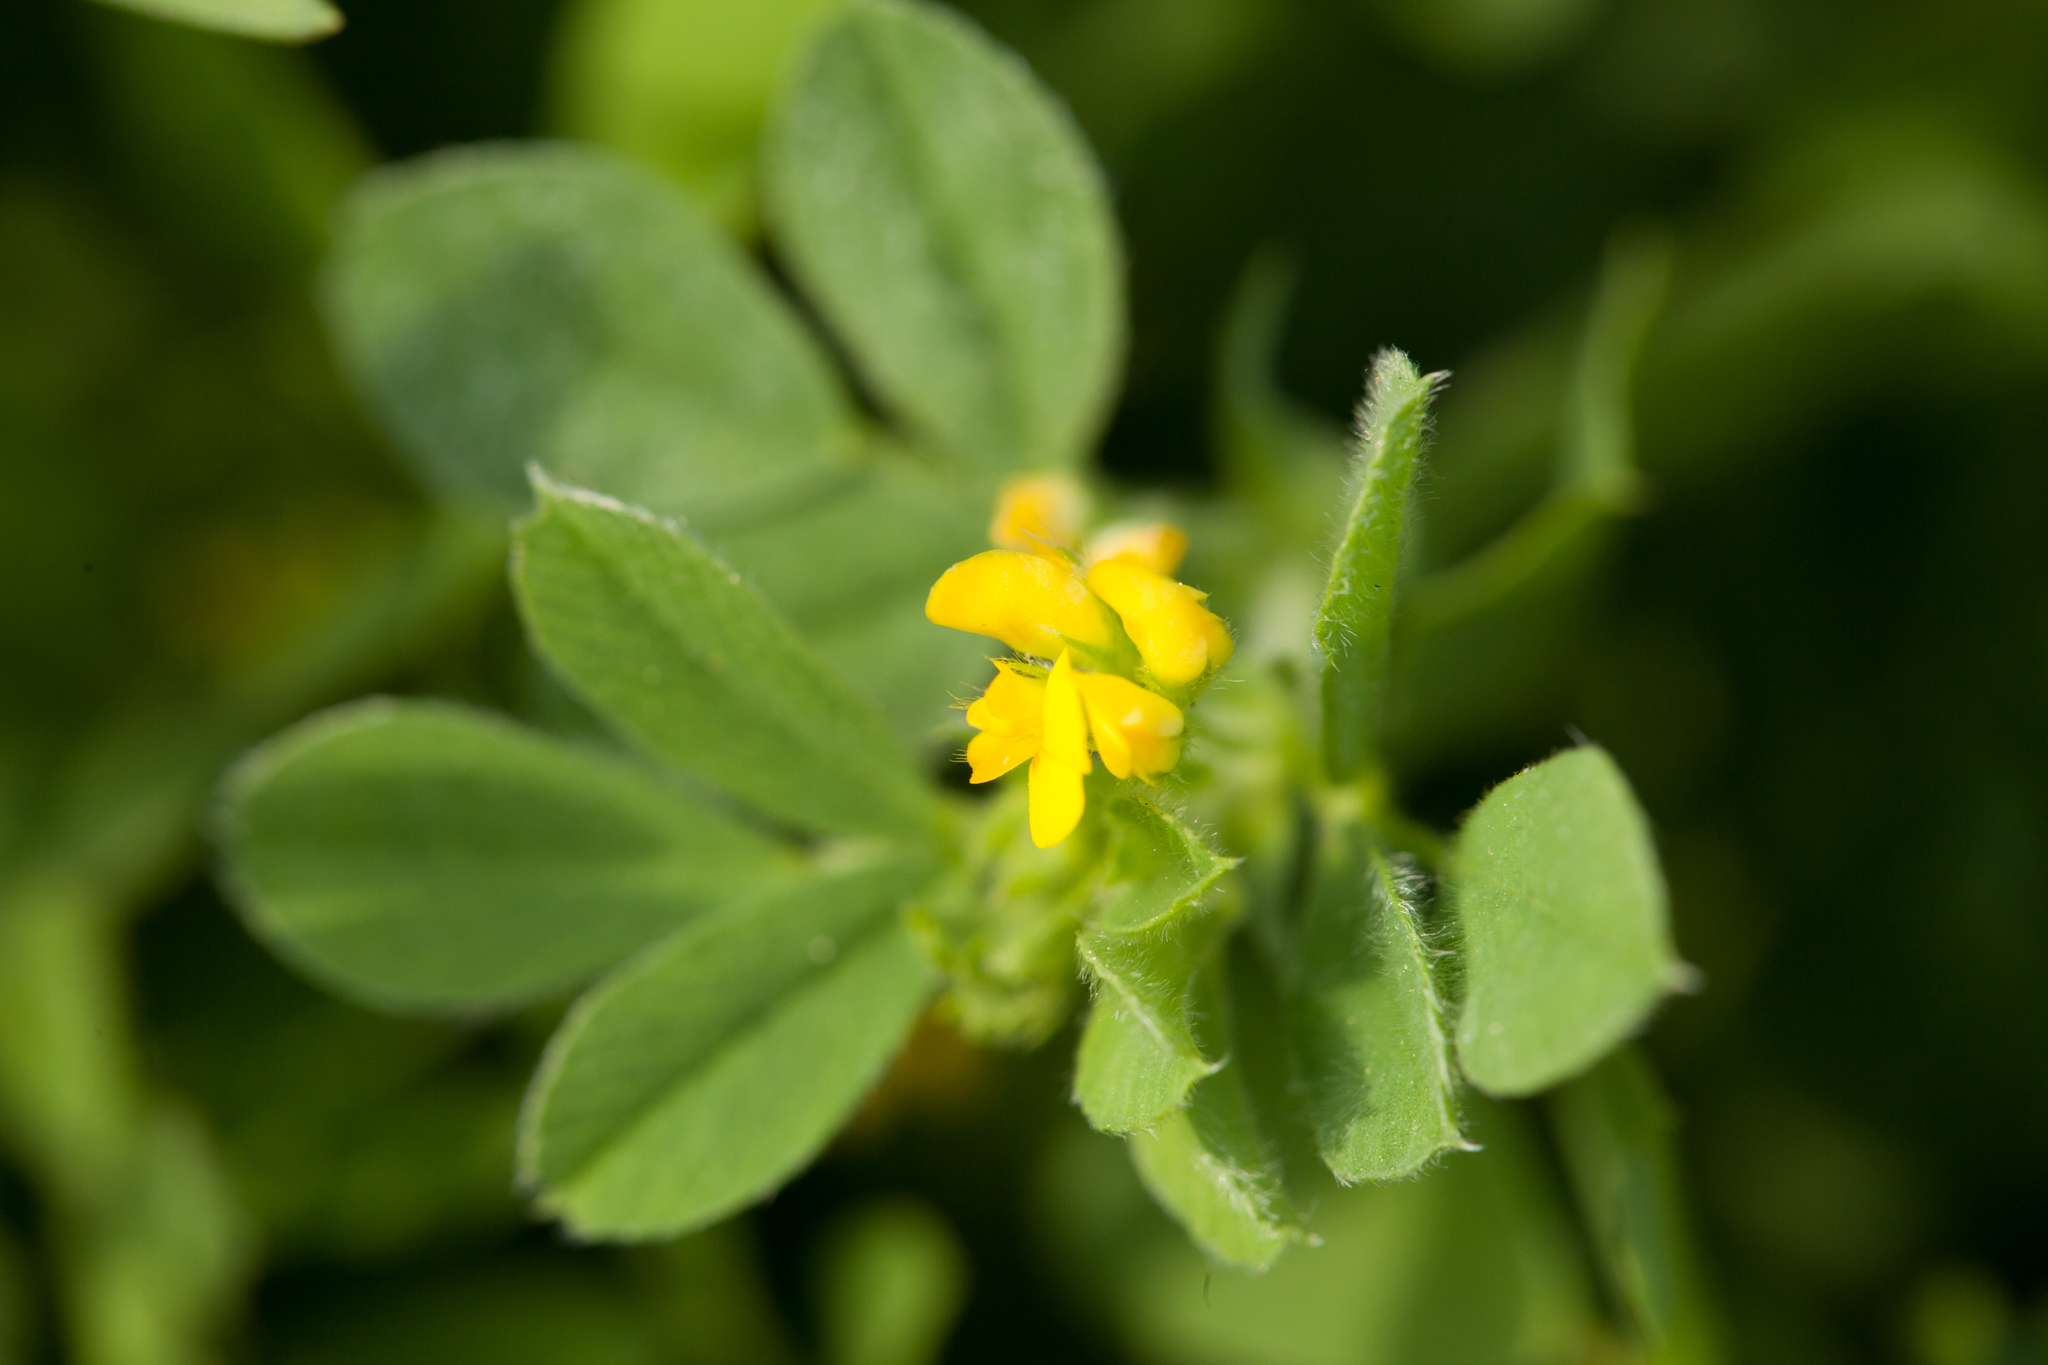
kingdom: Plantae
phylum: Tracheophyta
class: Magnoliopsida
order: Fabales
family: Fabaceae
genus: Medicago
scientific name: Medicago minima
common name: Little bur-clover
